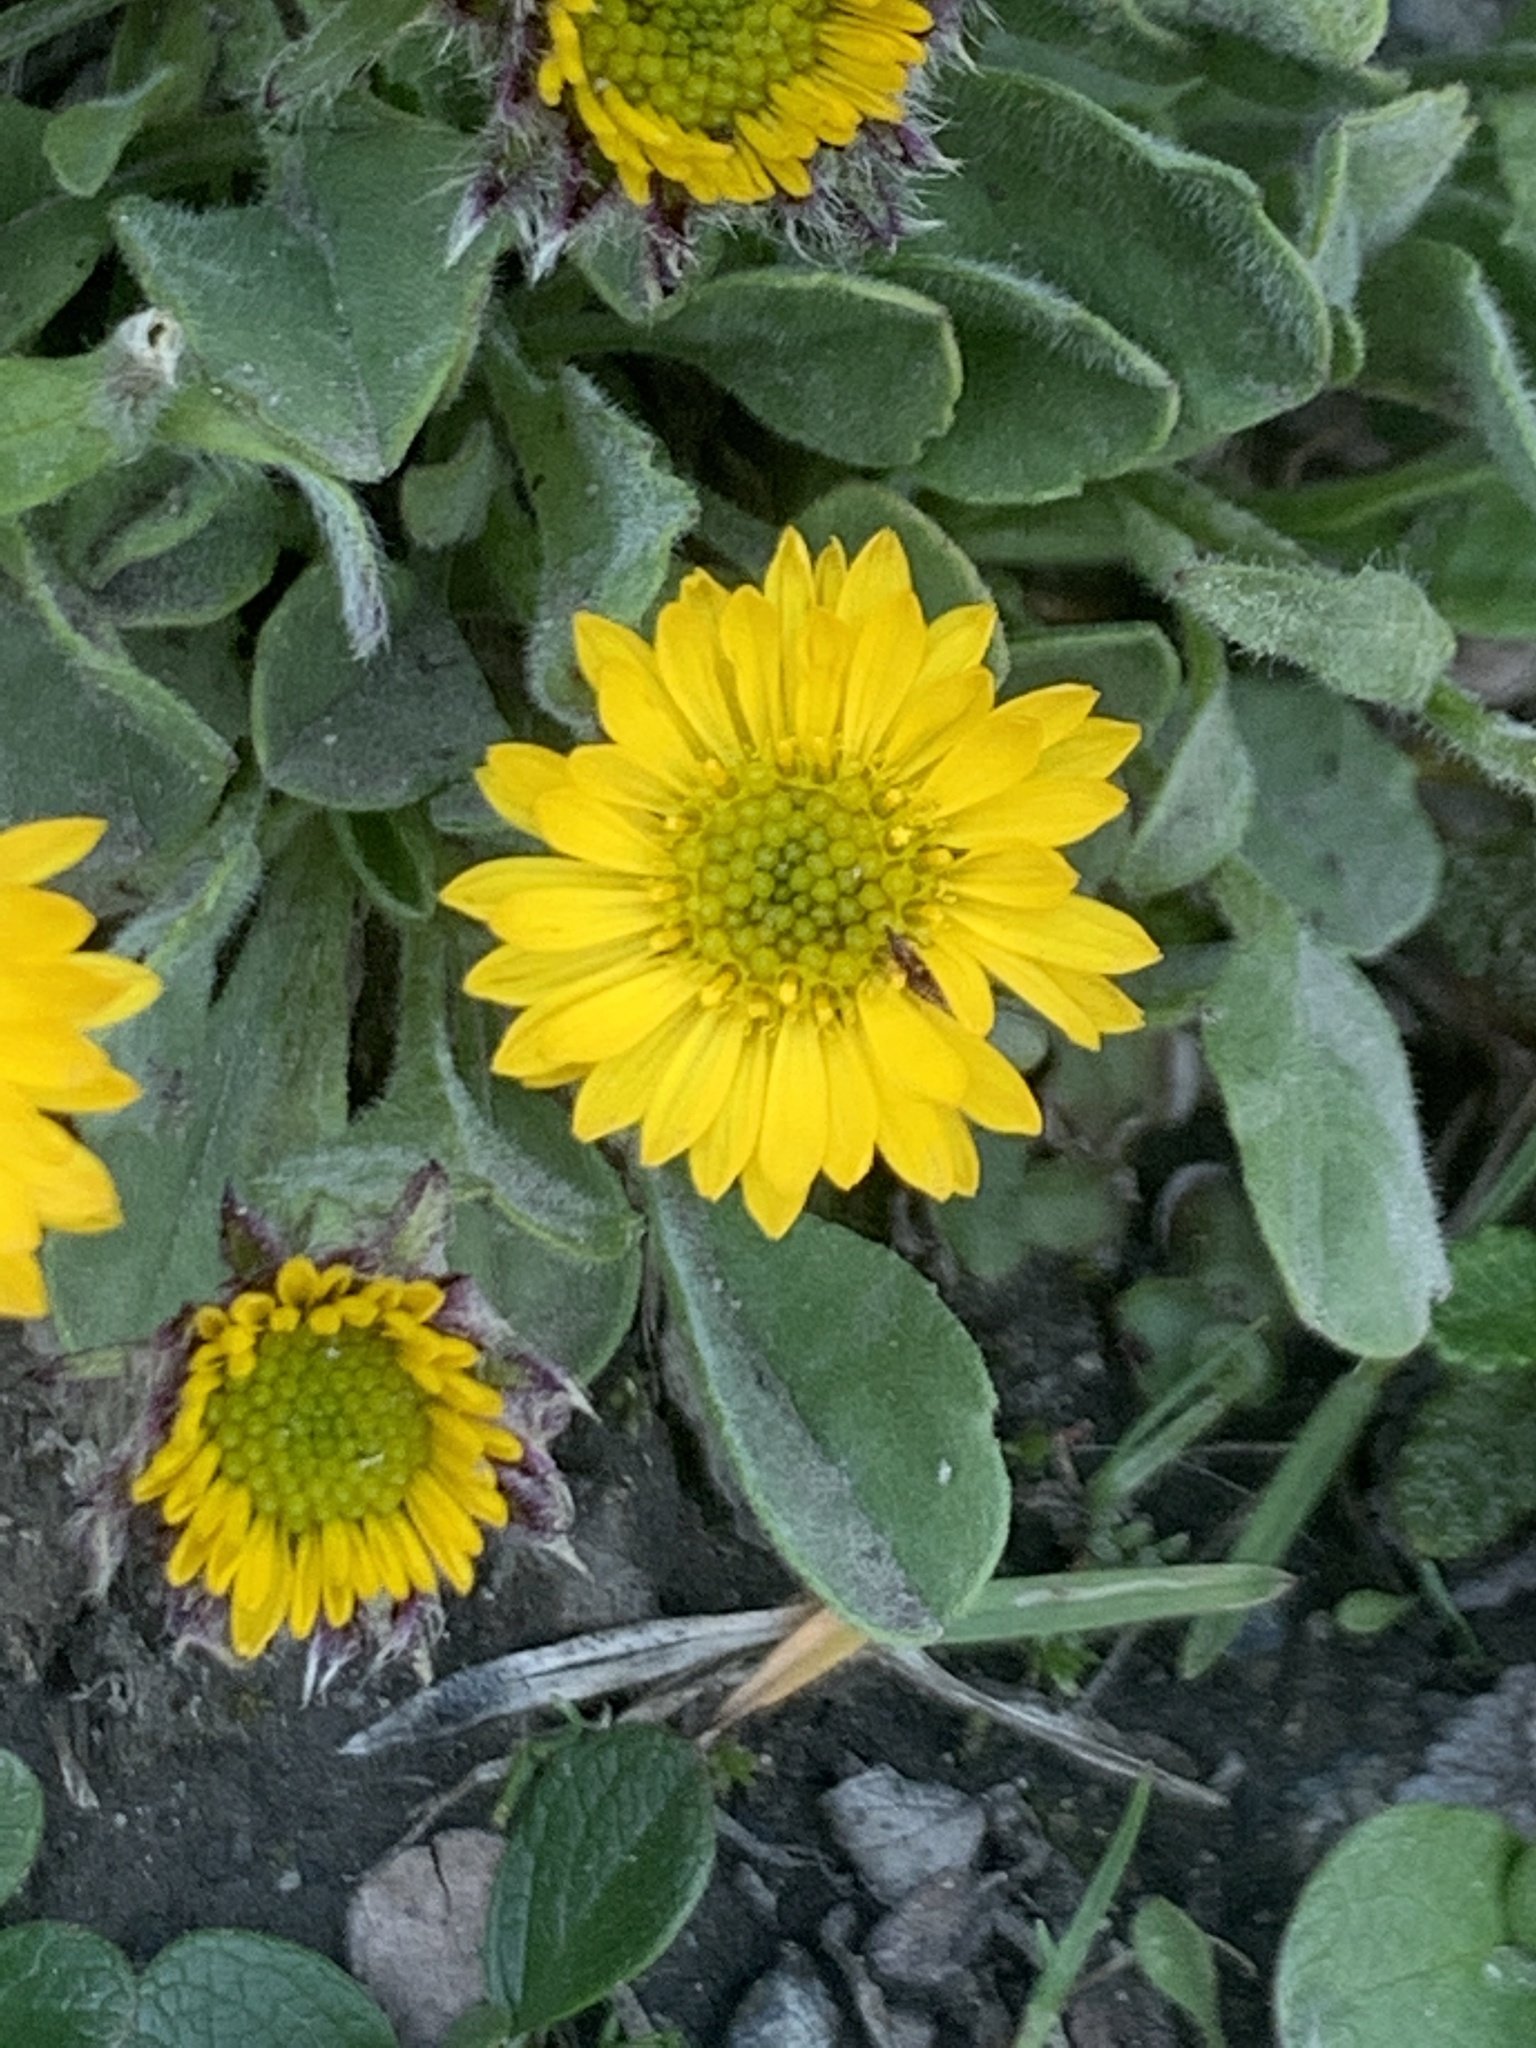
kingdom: Plantae
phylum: Tracheophyta
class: Magnoliopsida
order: Asterales
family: Asteraceae
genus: Erigeron
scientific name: Erigeron aureus
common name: Alpine yellow fleabane
